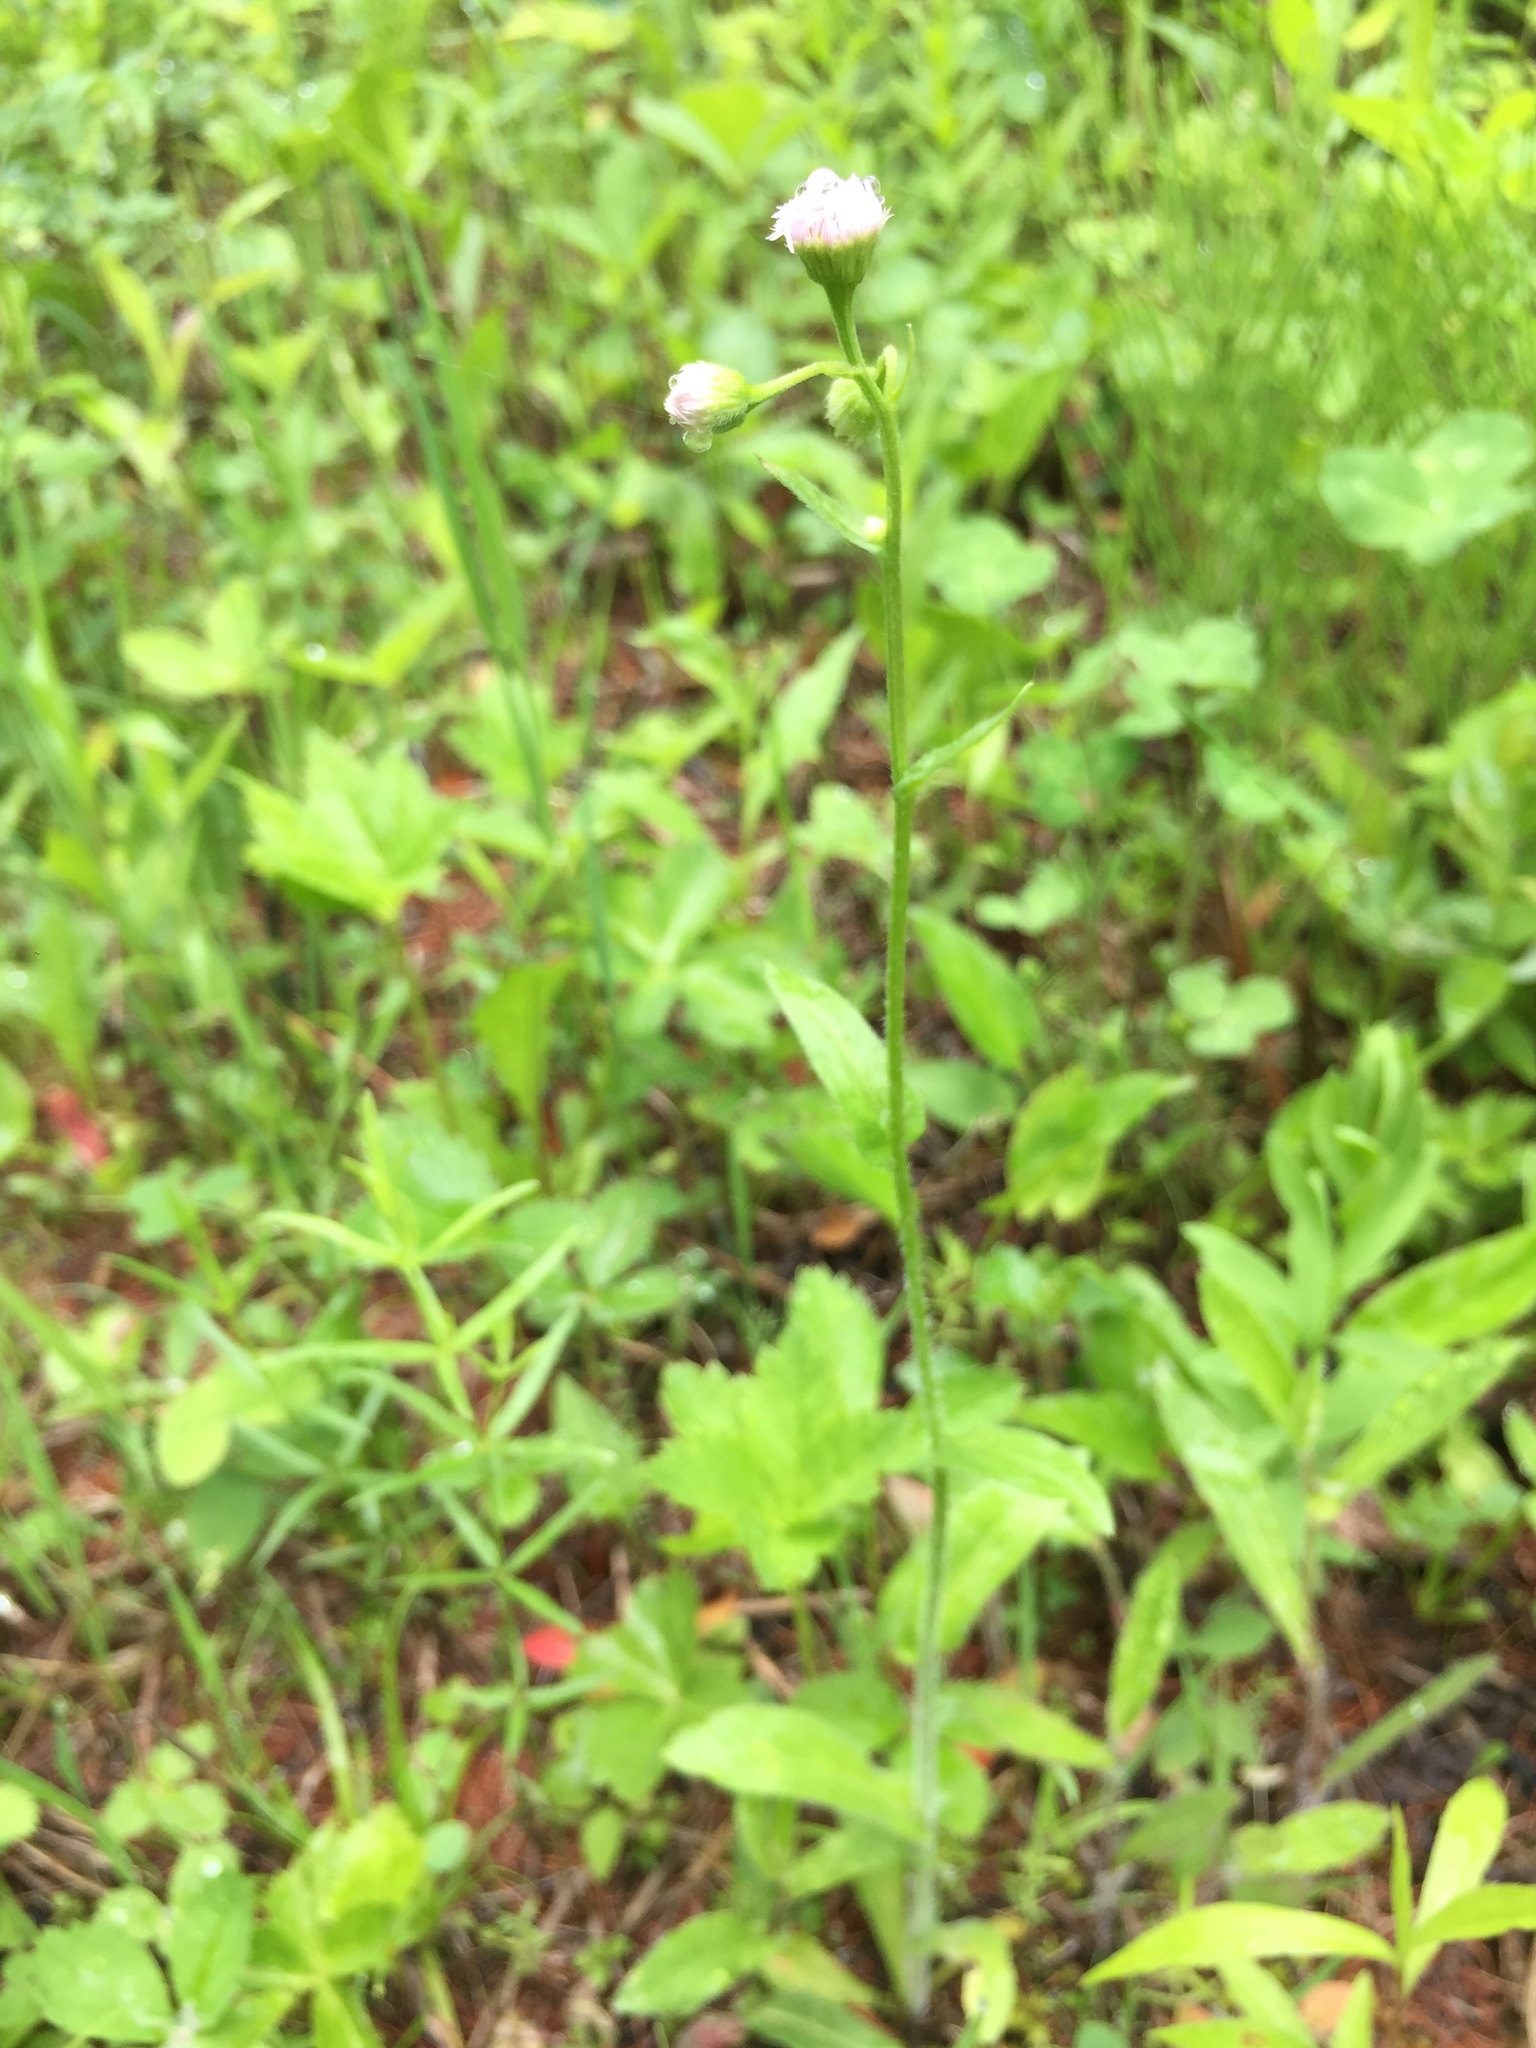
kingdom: Plantae
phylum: Tracheophyta
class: Magnoliopsida
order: Asterales
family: Asteraceae
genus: Erigeron
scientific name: Erigeron philadelphicus
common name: Robin's-plantain
